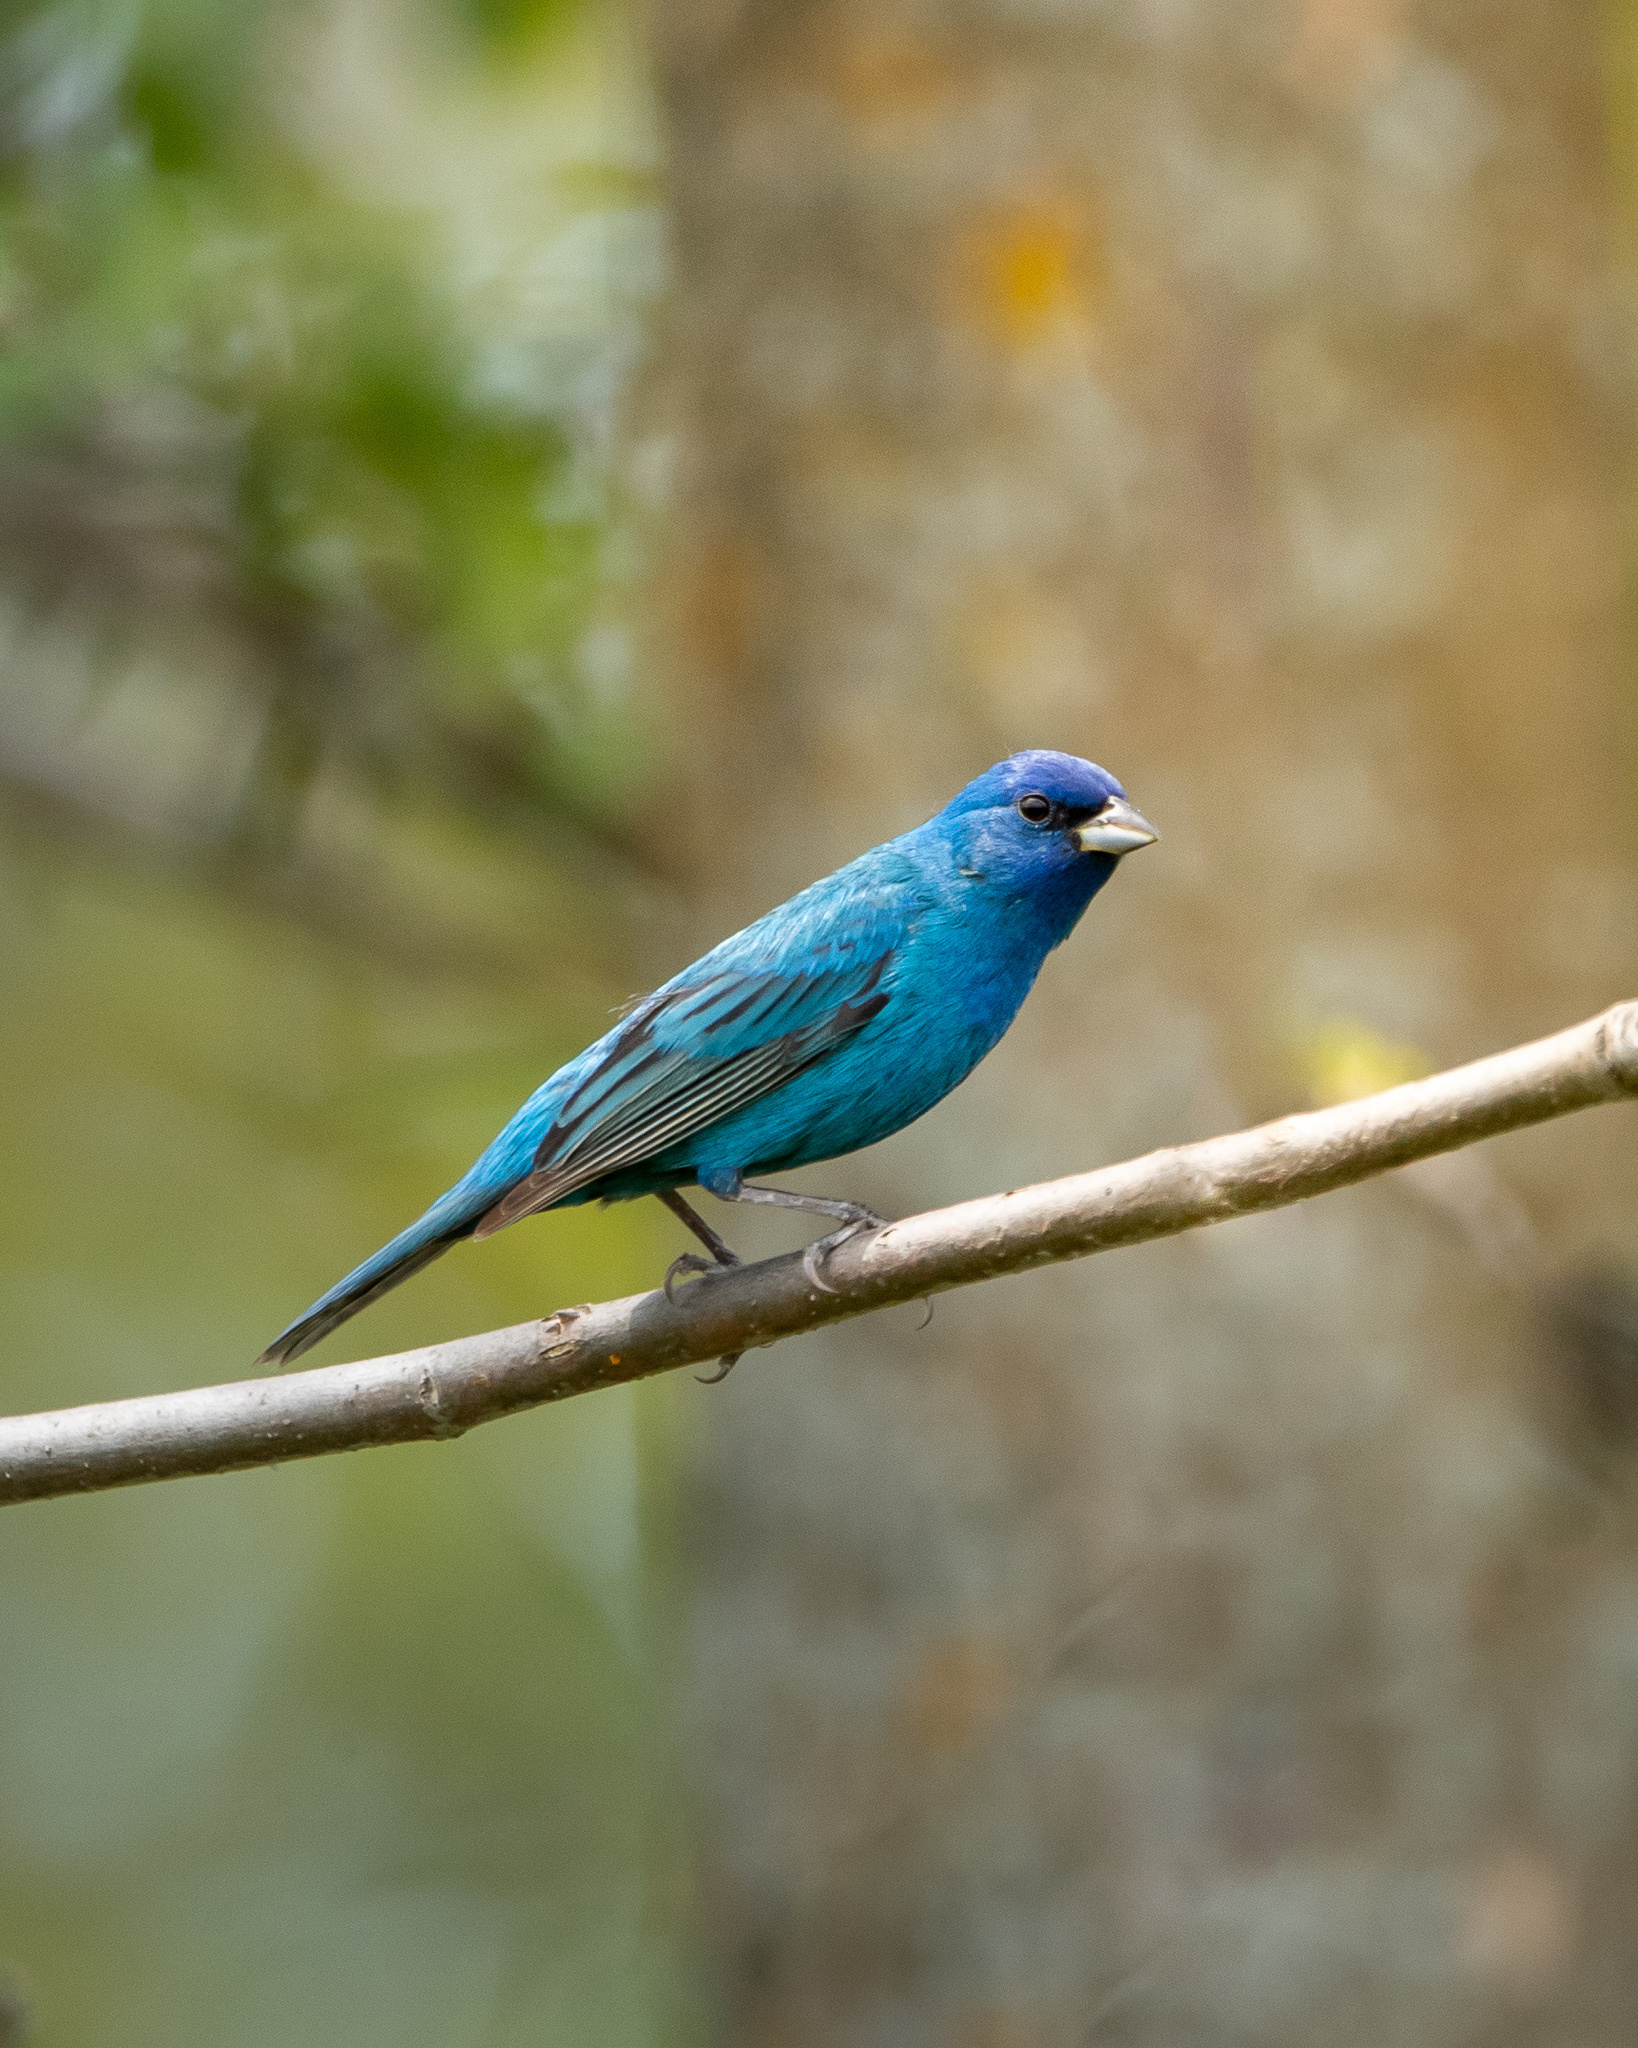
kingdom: Animalia
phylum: Chordata
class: Aves
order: Passeriformes
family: Cardinalidae
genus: Passerina
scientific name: Passerina cyanea
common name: Indigo bunting
